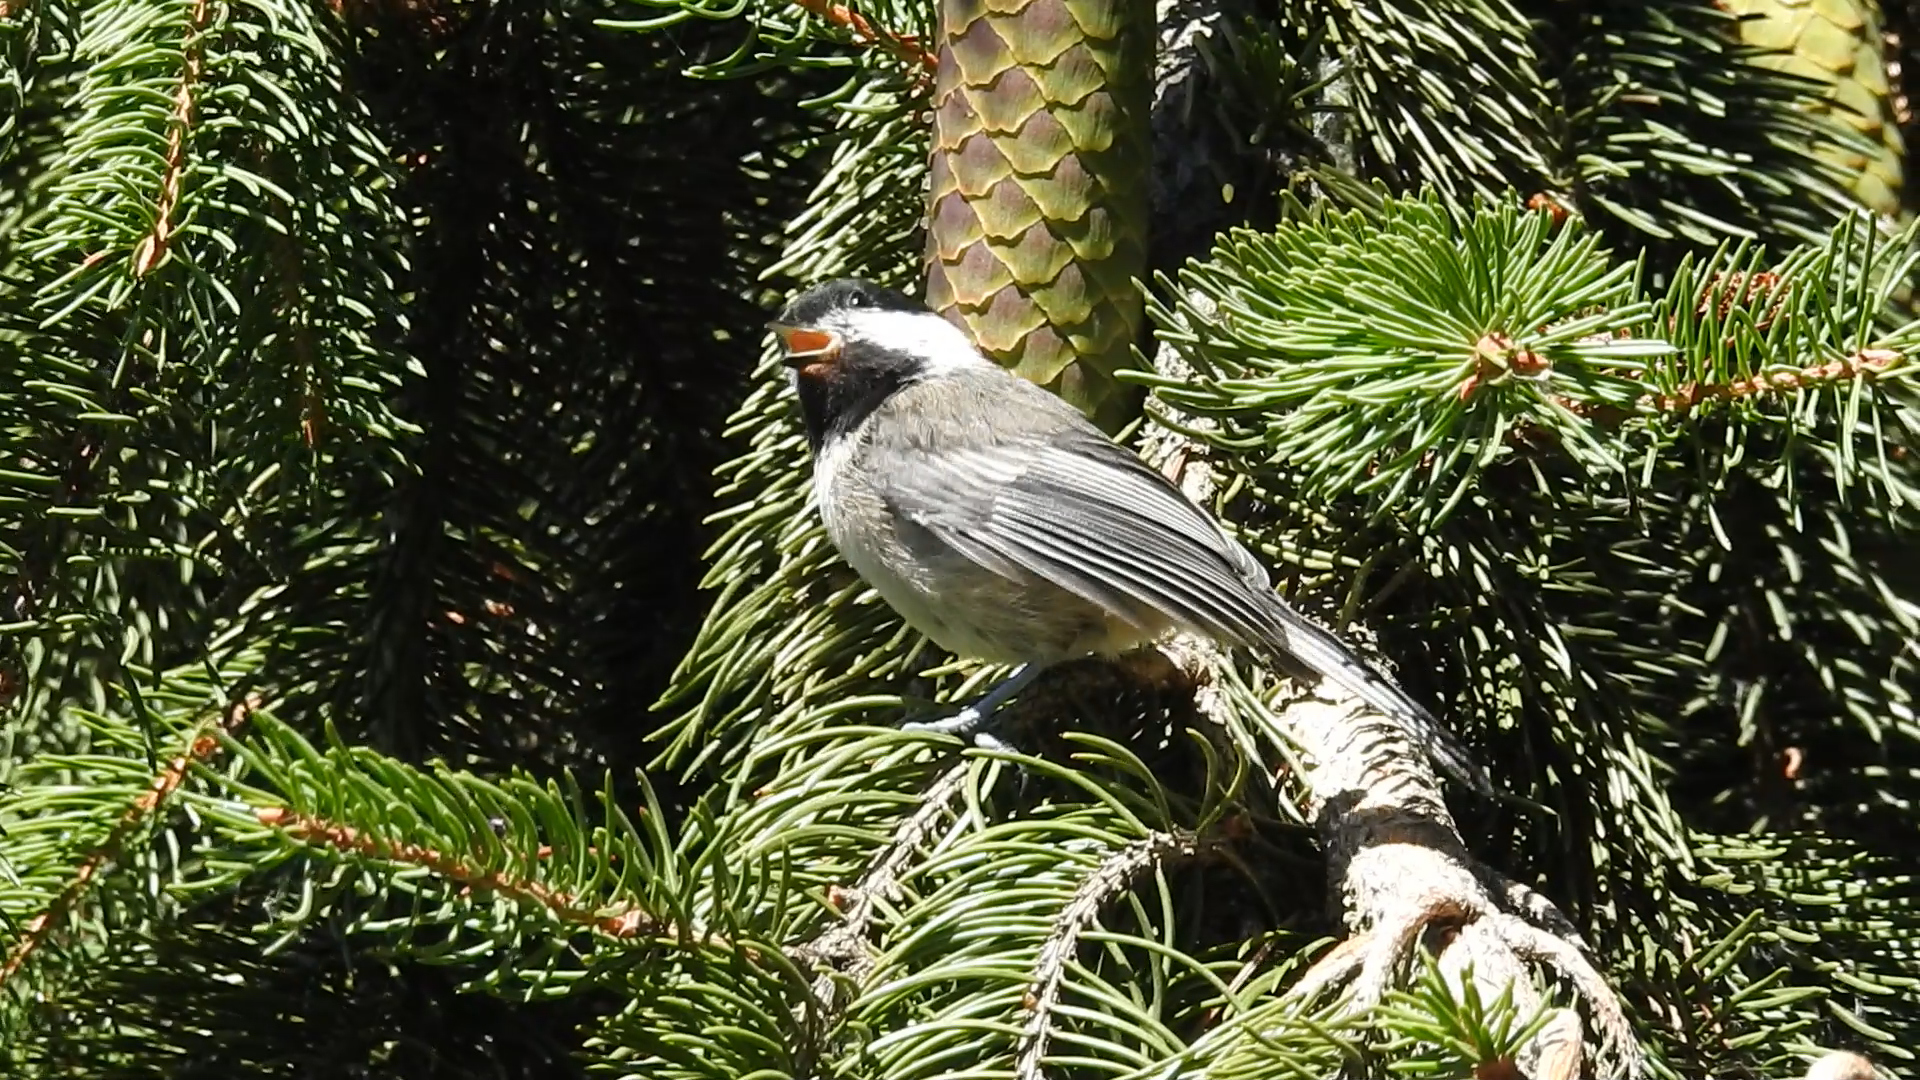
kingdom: Animalia
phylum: Chordata
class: Aves
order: Passeriformes
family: Paridae
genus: Poecile
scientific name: Poecile atricapillus
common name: Black-capped chickadee
